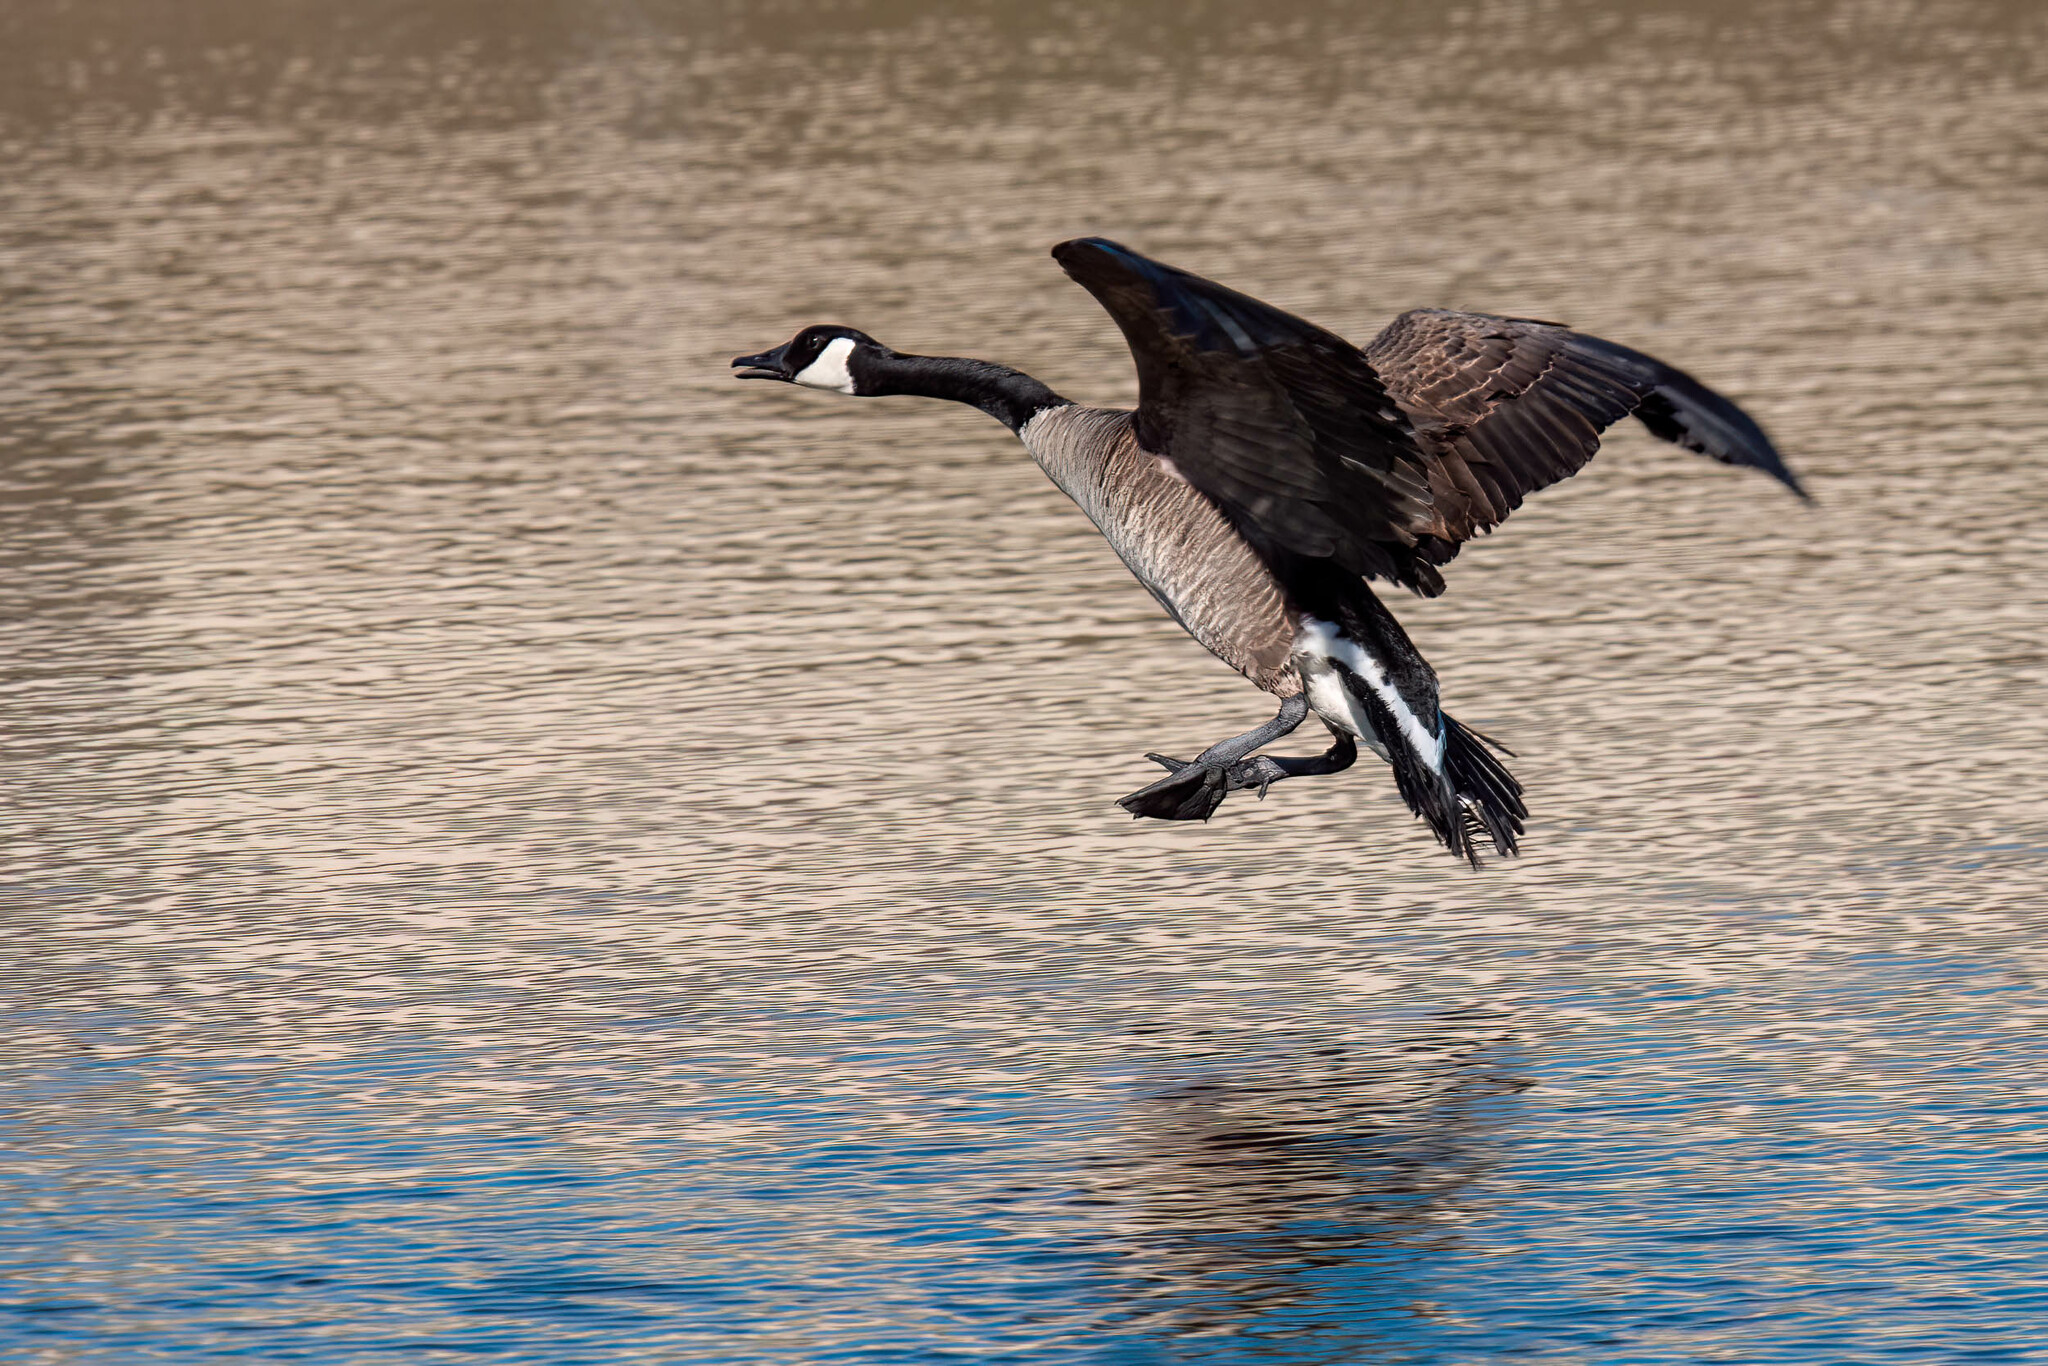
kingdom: Animalia
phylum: Chordata
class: Aves
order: Anseriformes
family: Anatidae
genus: Branta
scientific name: Branta canadensis
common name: Canada goose
